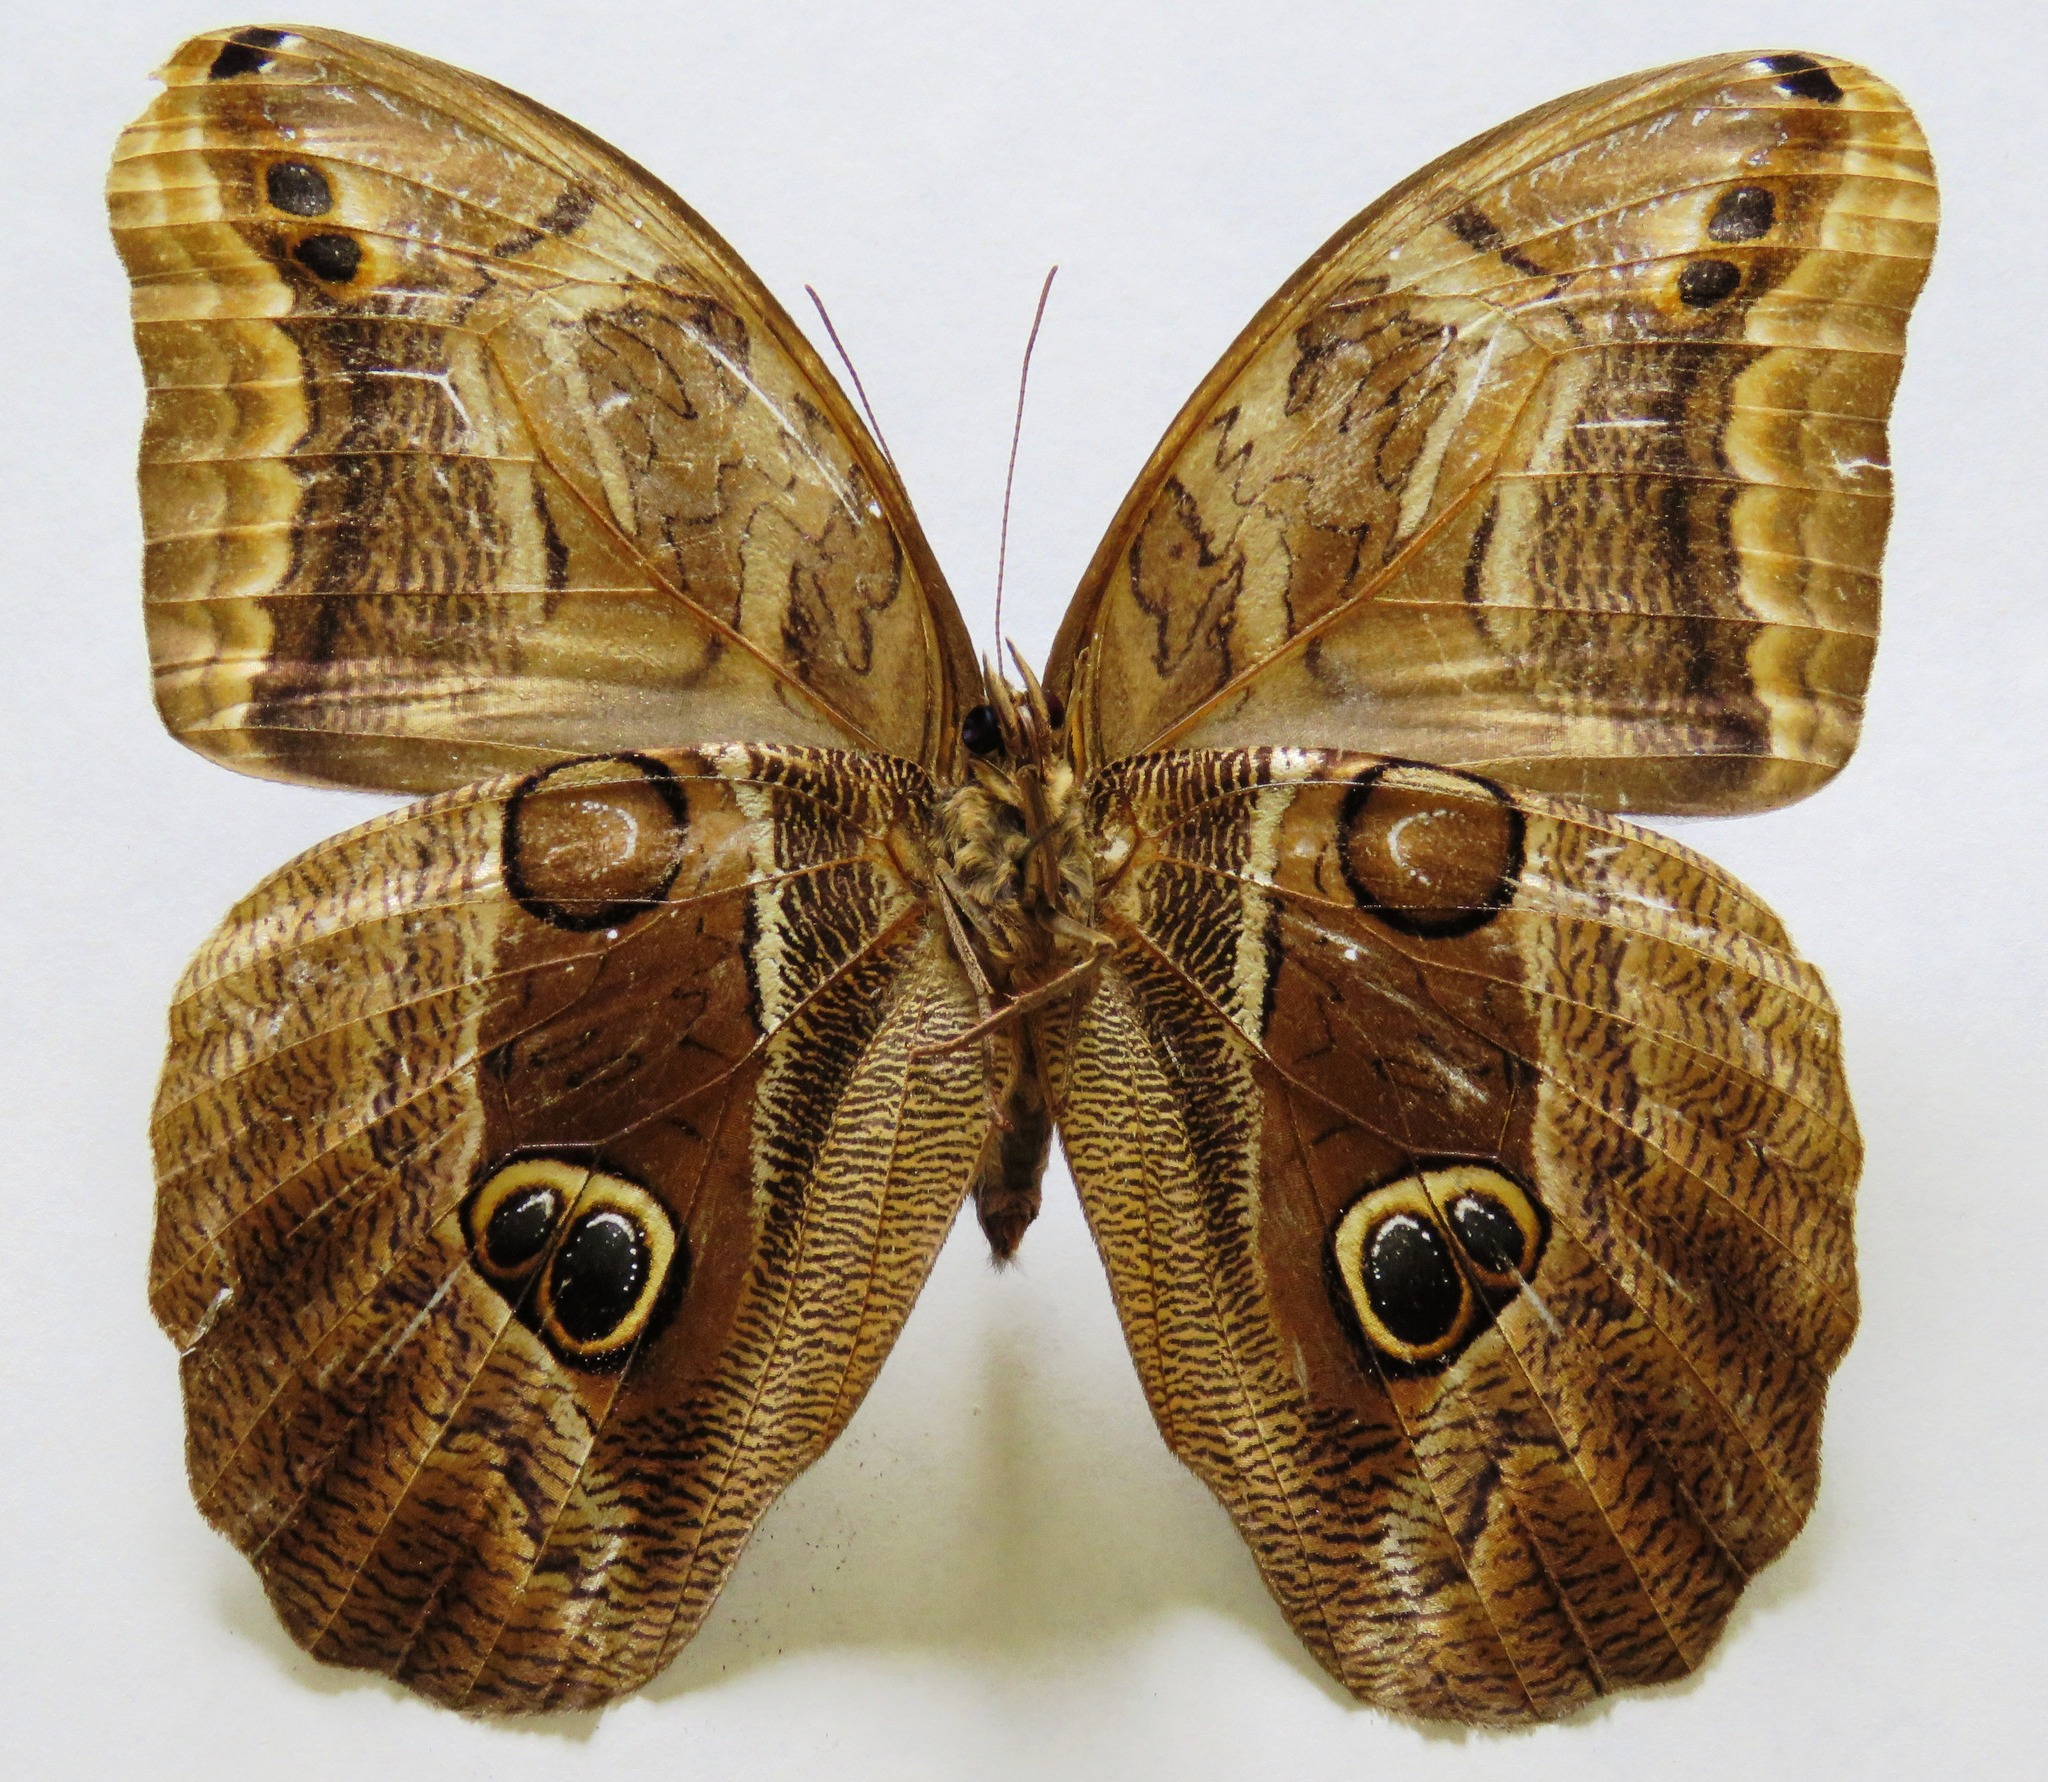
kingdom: Animalia
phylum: Arthropoda
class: Insecta
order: Lepidoptera
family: Nymphalidae
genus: Eryphanis
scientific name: Eryphanis aesacus
